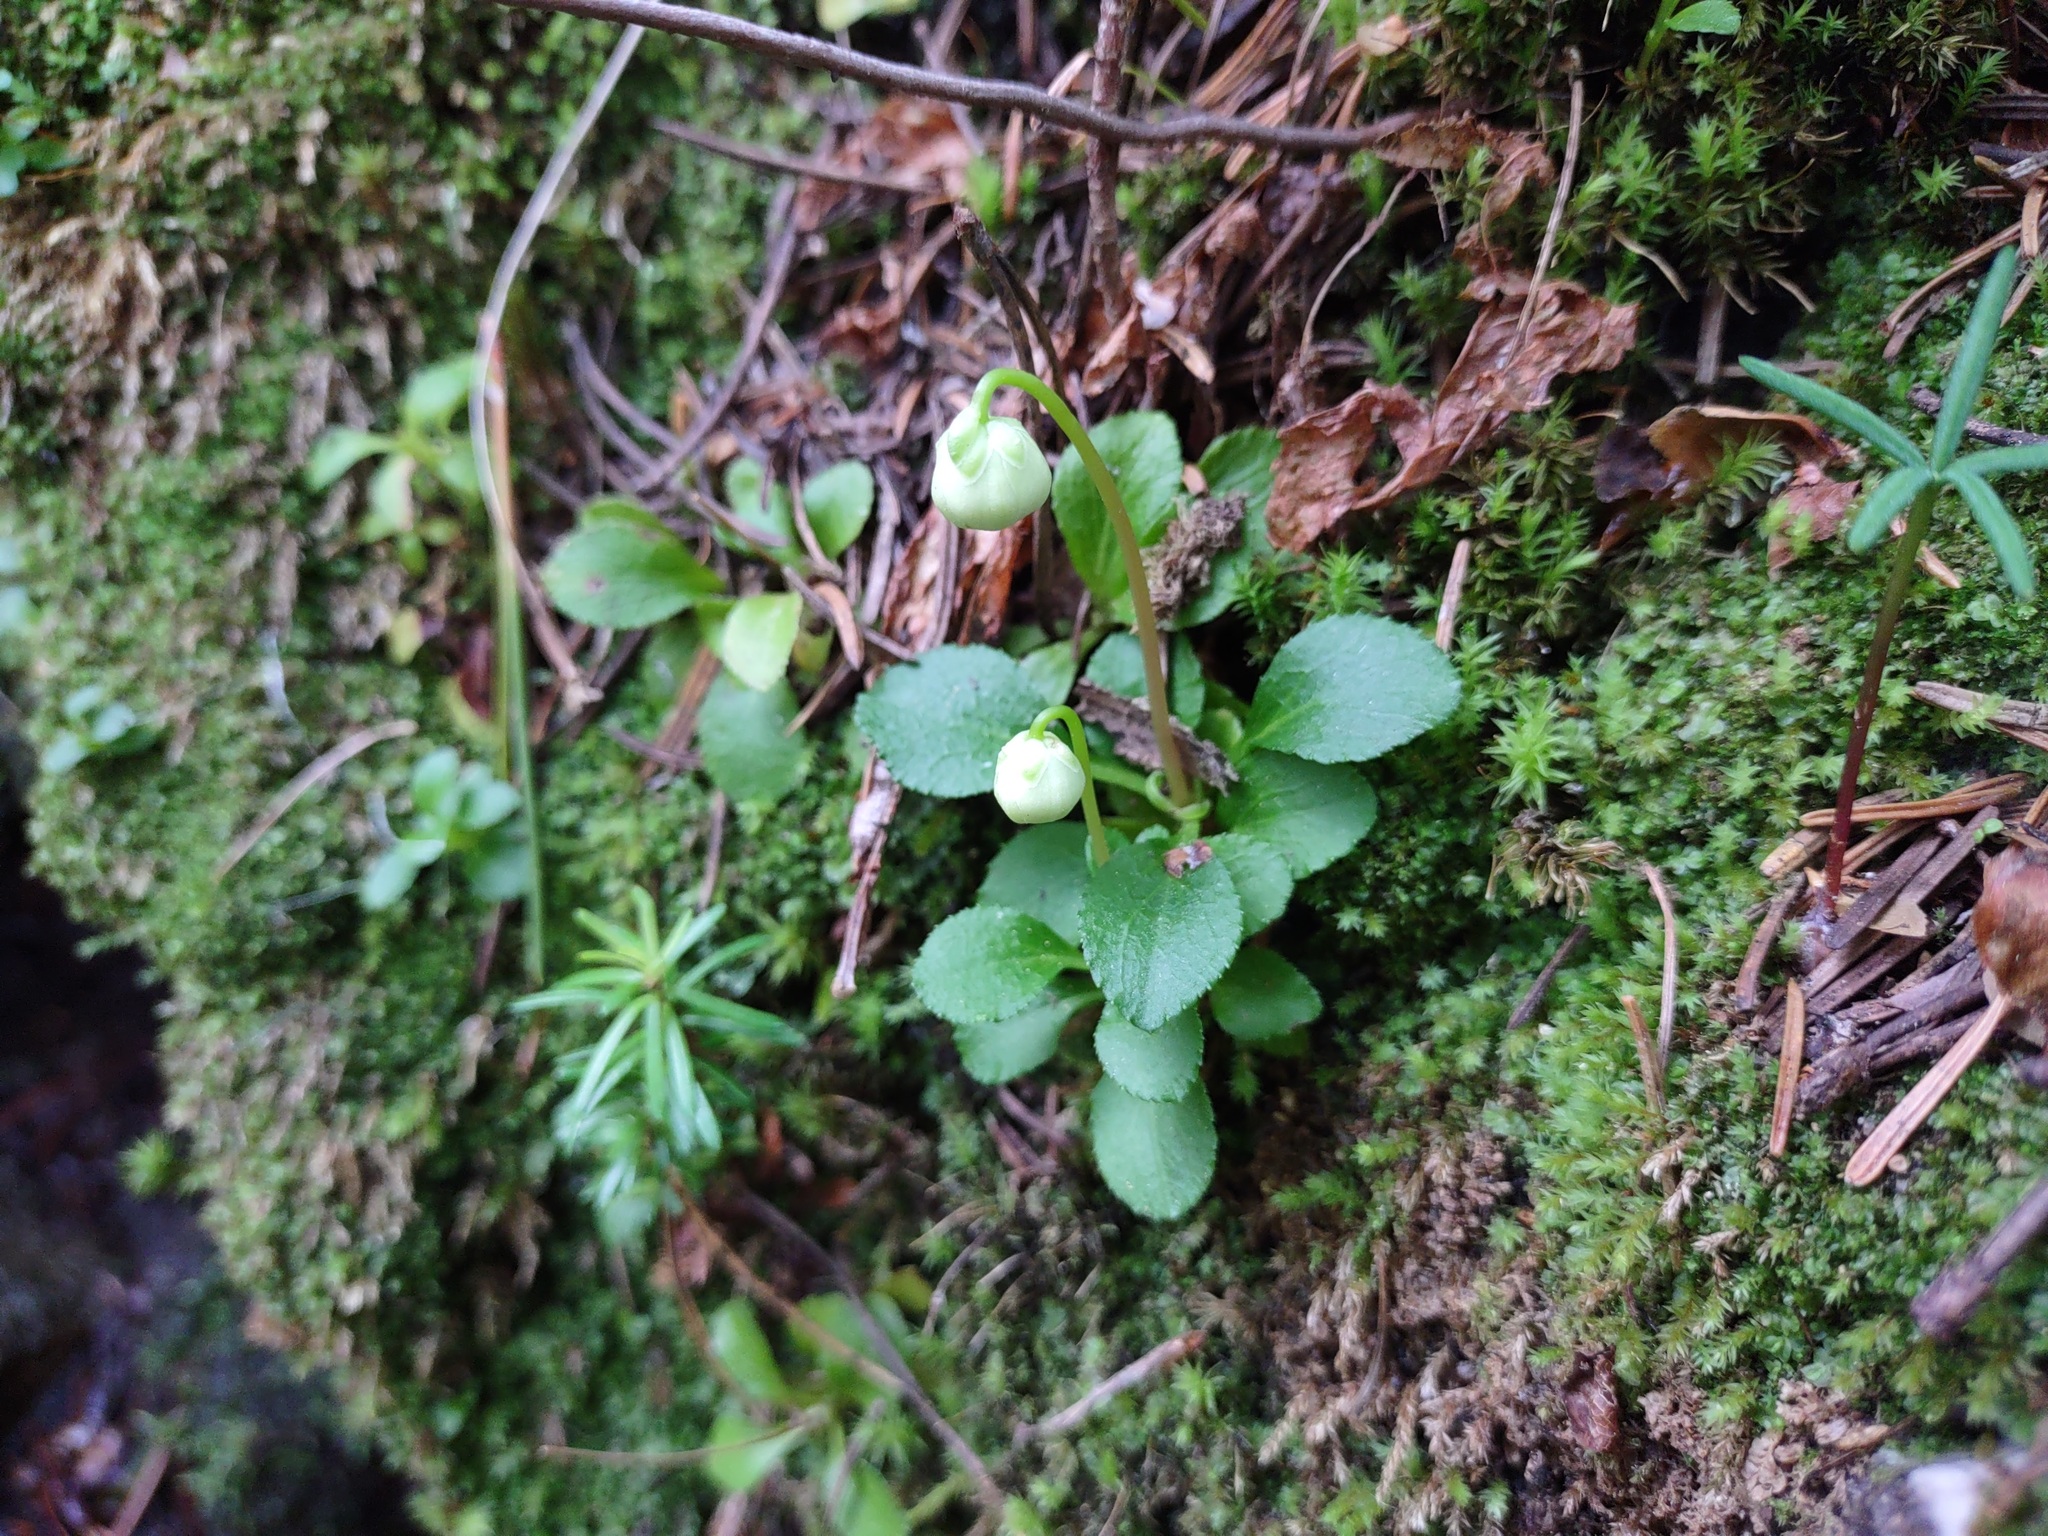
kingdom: Plantae
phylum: Tracheophyta
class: Magnoliopsida
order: Ericales
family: Ericaceae
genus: Moneses
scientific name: Moneses uniflora
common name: One-flowered wintergreen
